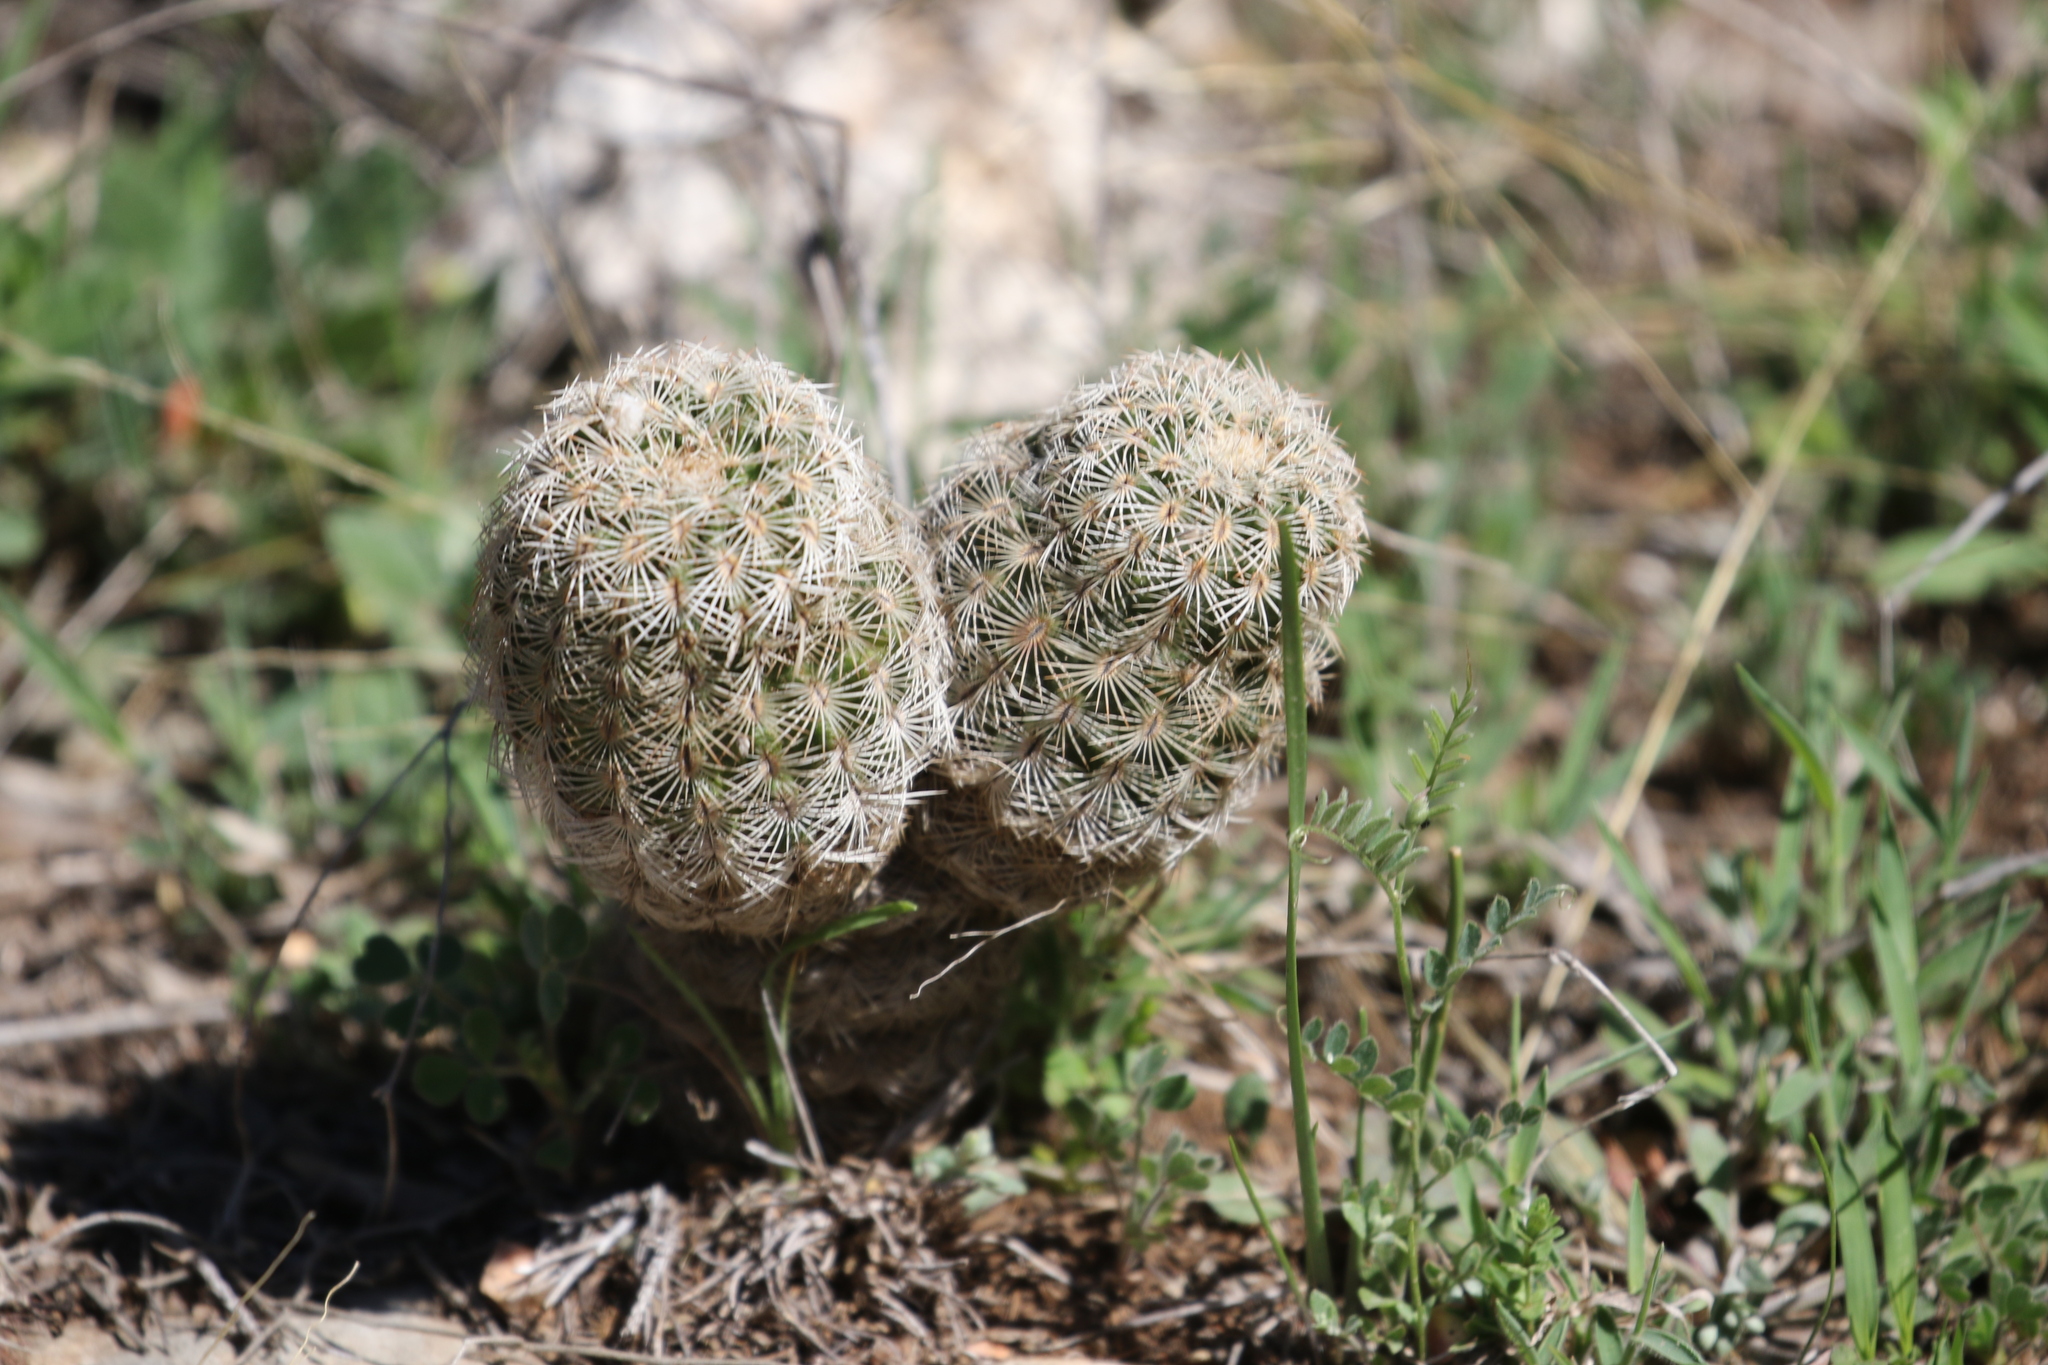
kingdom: Plantae
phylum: Tracheophyta
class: Magnoliopsida
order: Caryophyllales
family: Cactaceae
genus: Echinocereus
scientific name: Echinocereus reichenbachii
